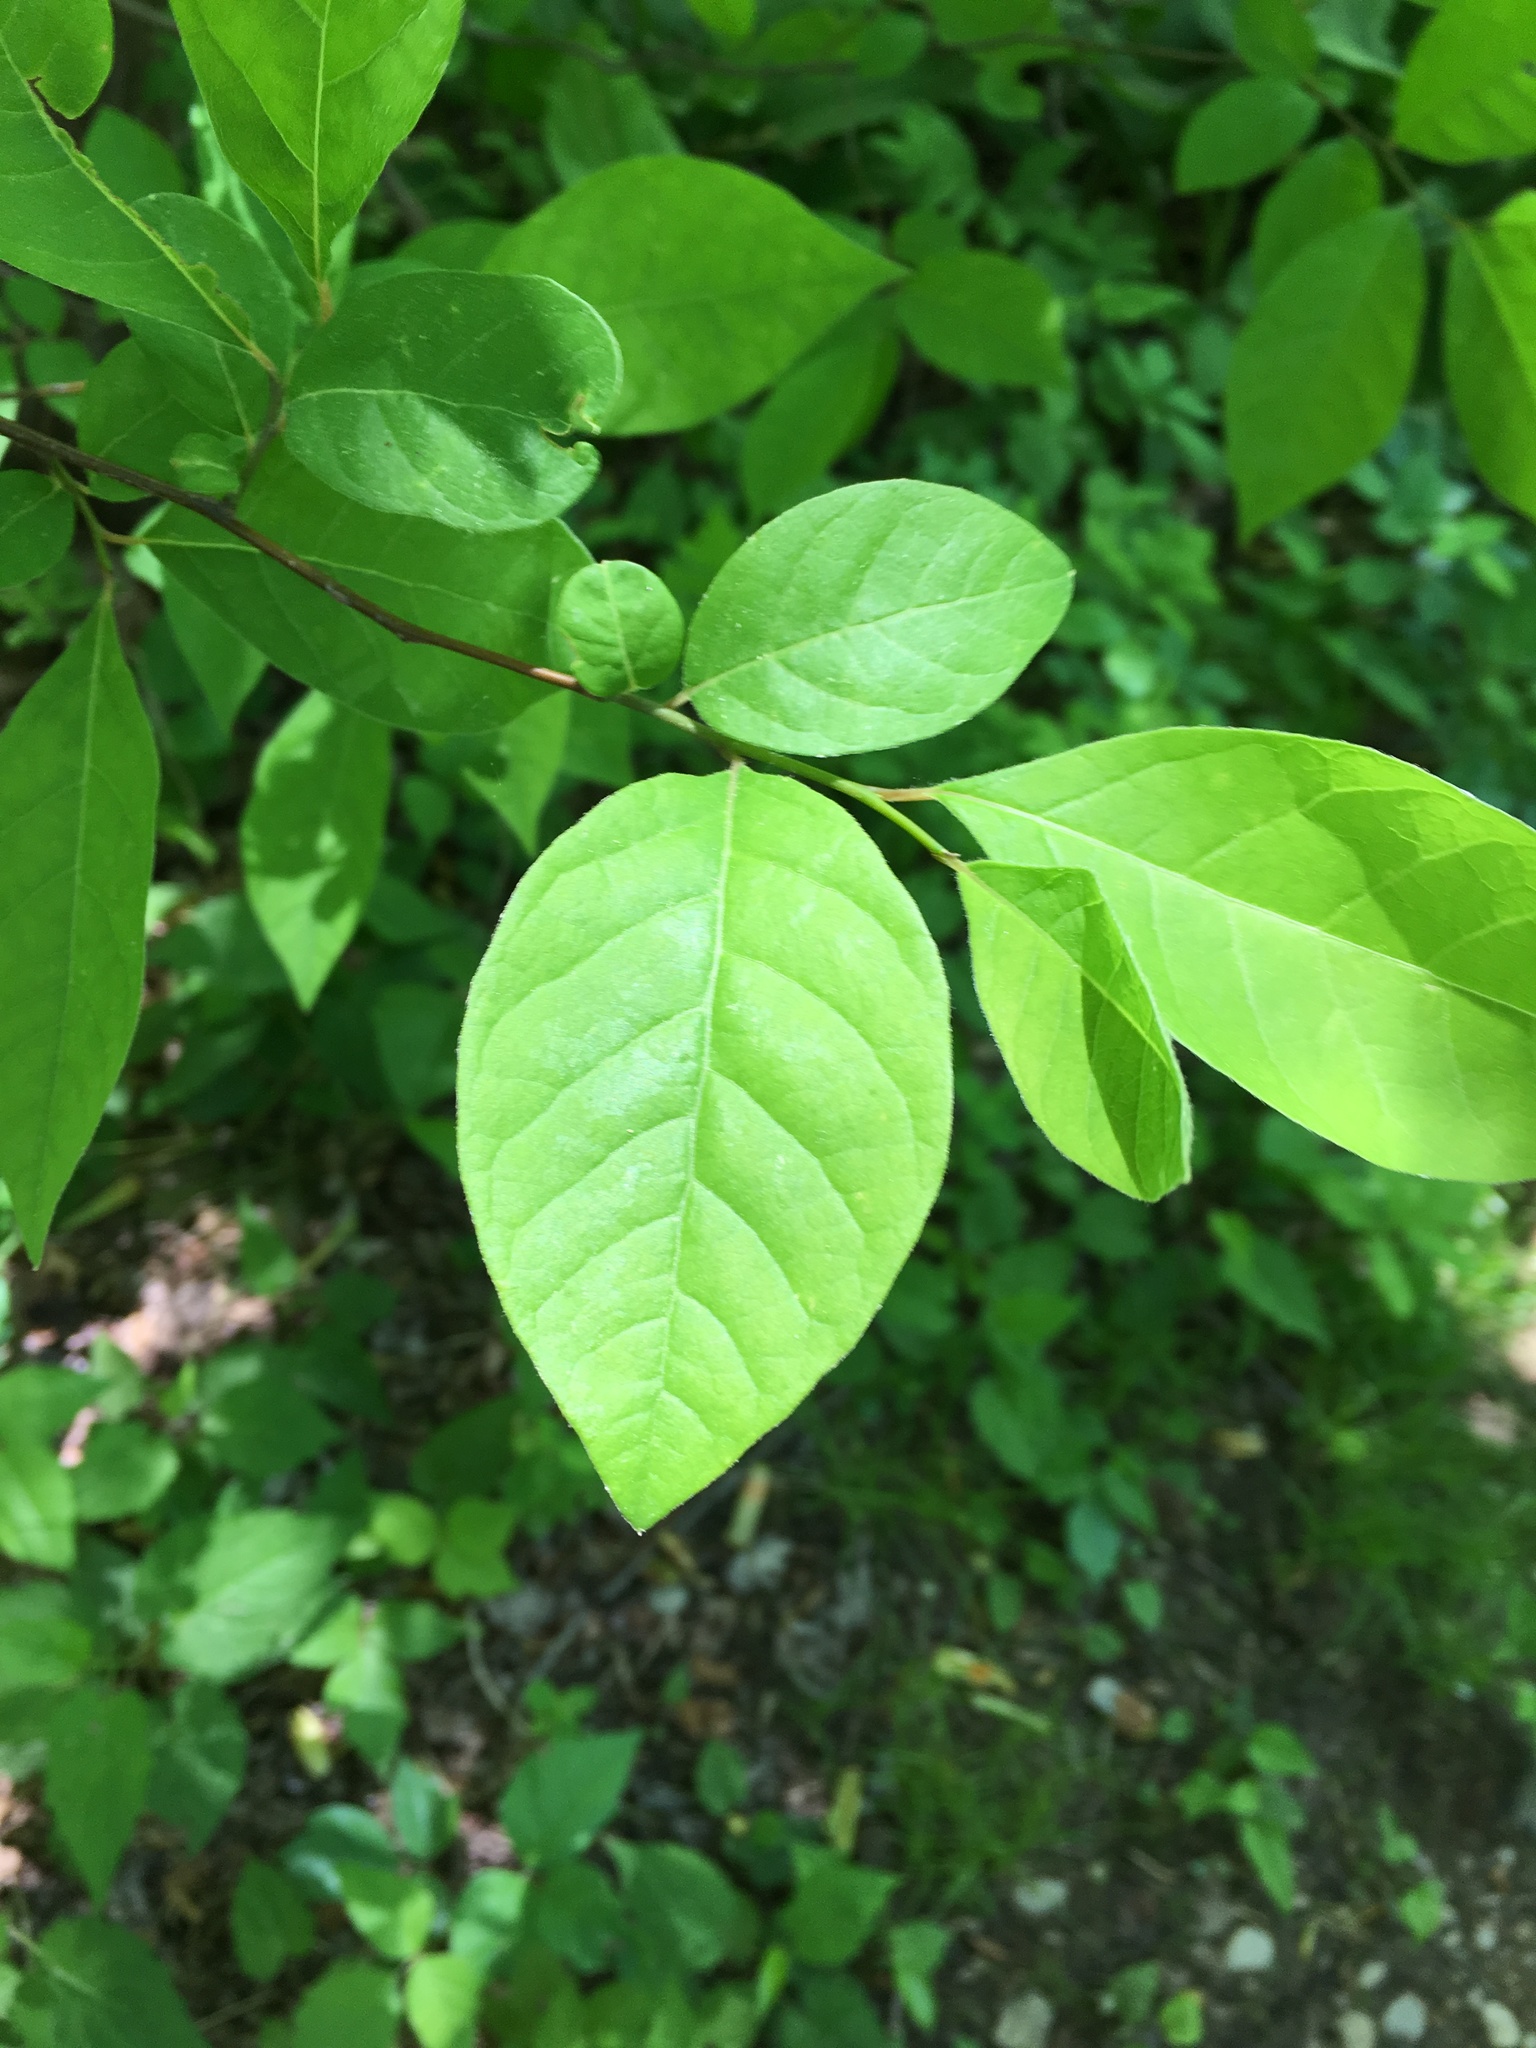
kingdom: Plantae
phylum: Tracheophyta
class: Magnoliopsida
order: Laurales
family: Lauraceae
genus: Lindera
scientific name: Lindera benzoin
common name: Spicebush
